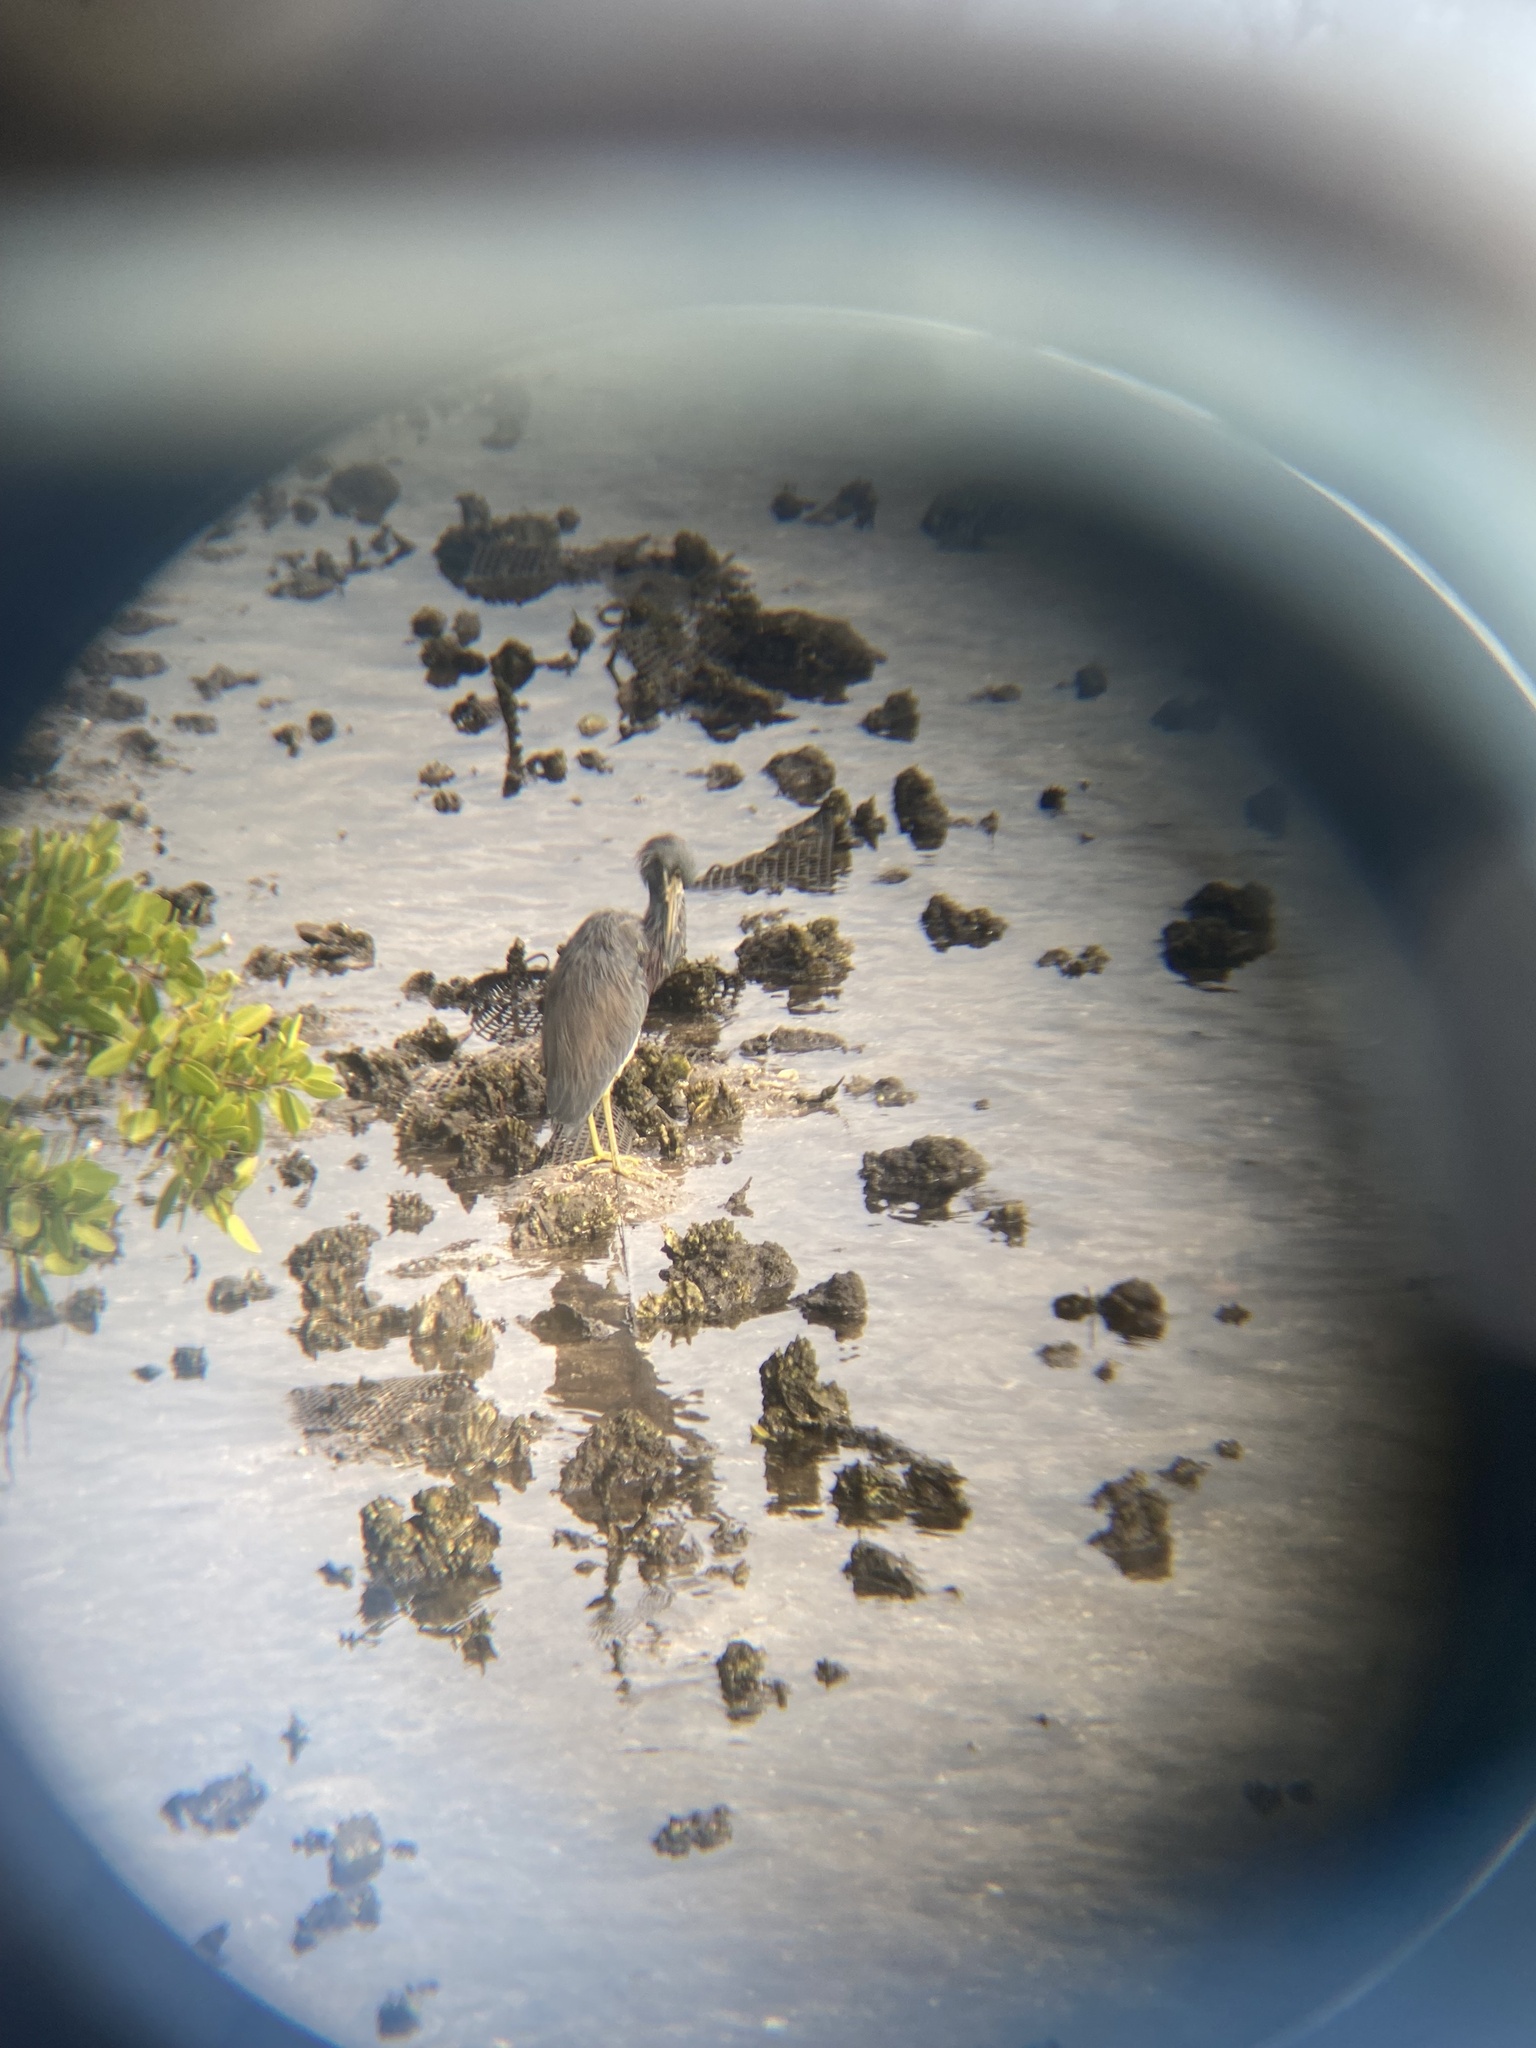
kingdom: Animalia
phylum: Chordata
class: Aves
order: Pelecaniformes
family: Ardeidae
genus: Egretta
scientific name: Egretta tricolor
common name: Tricolored heron
